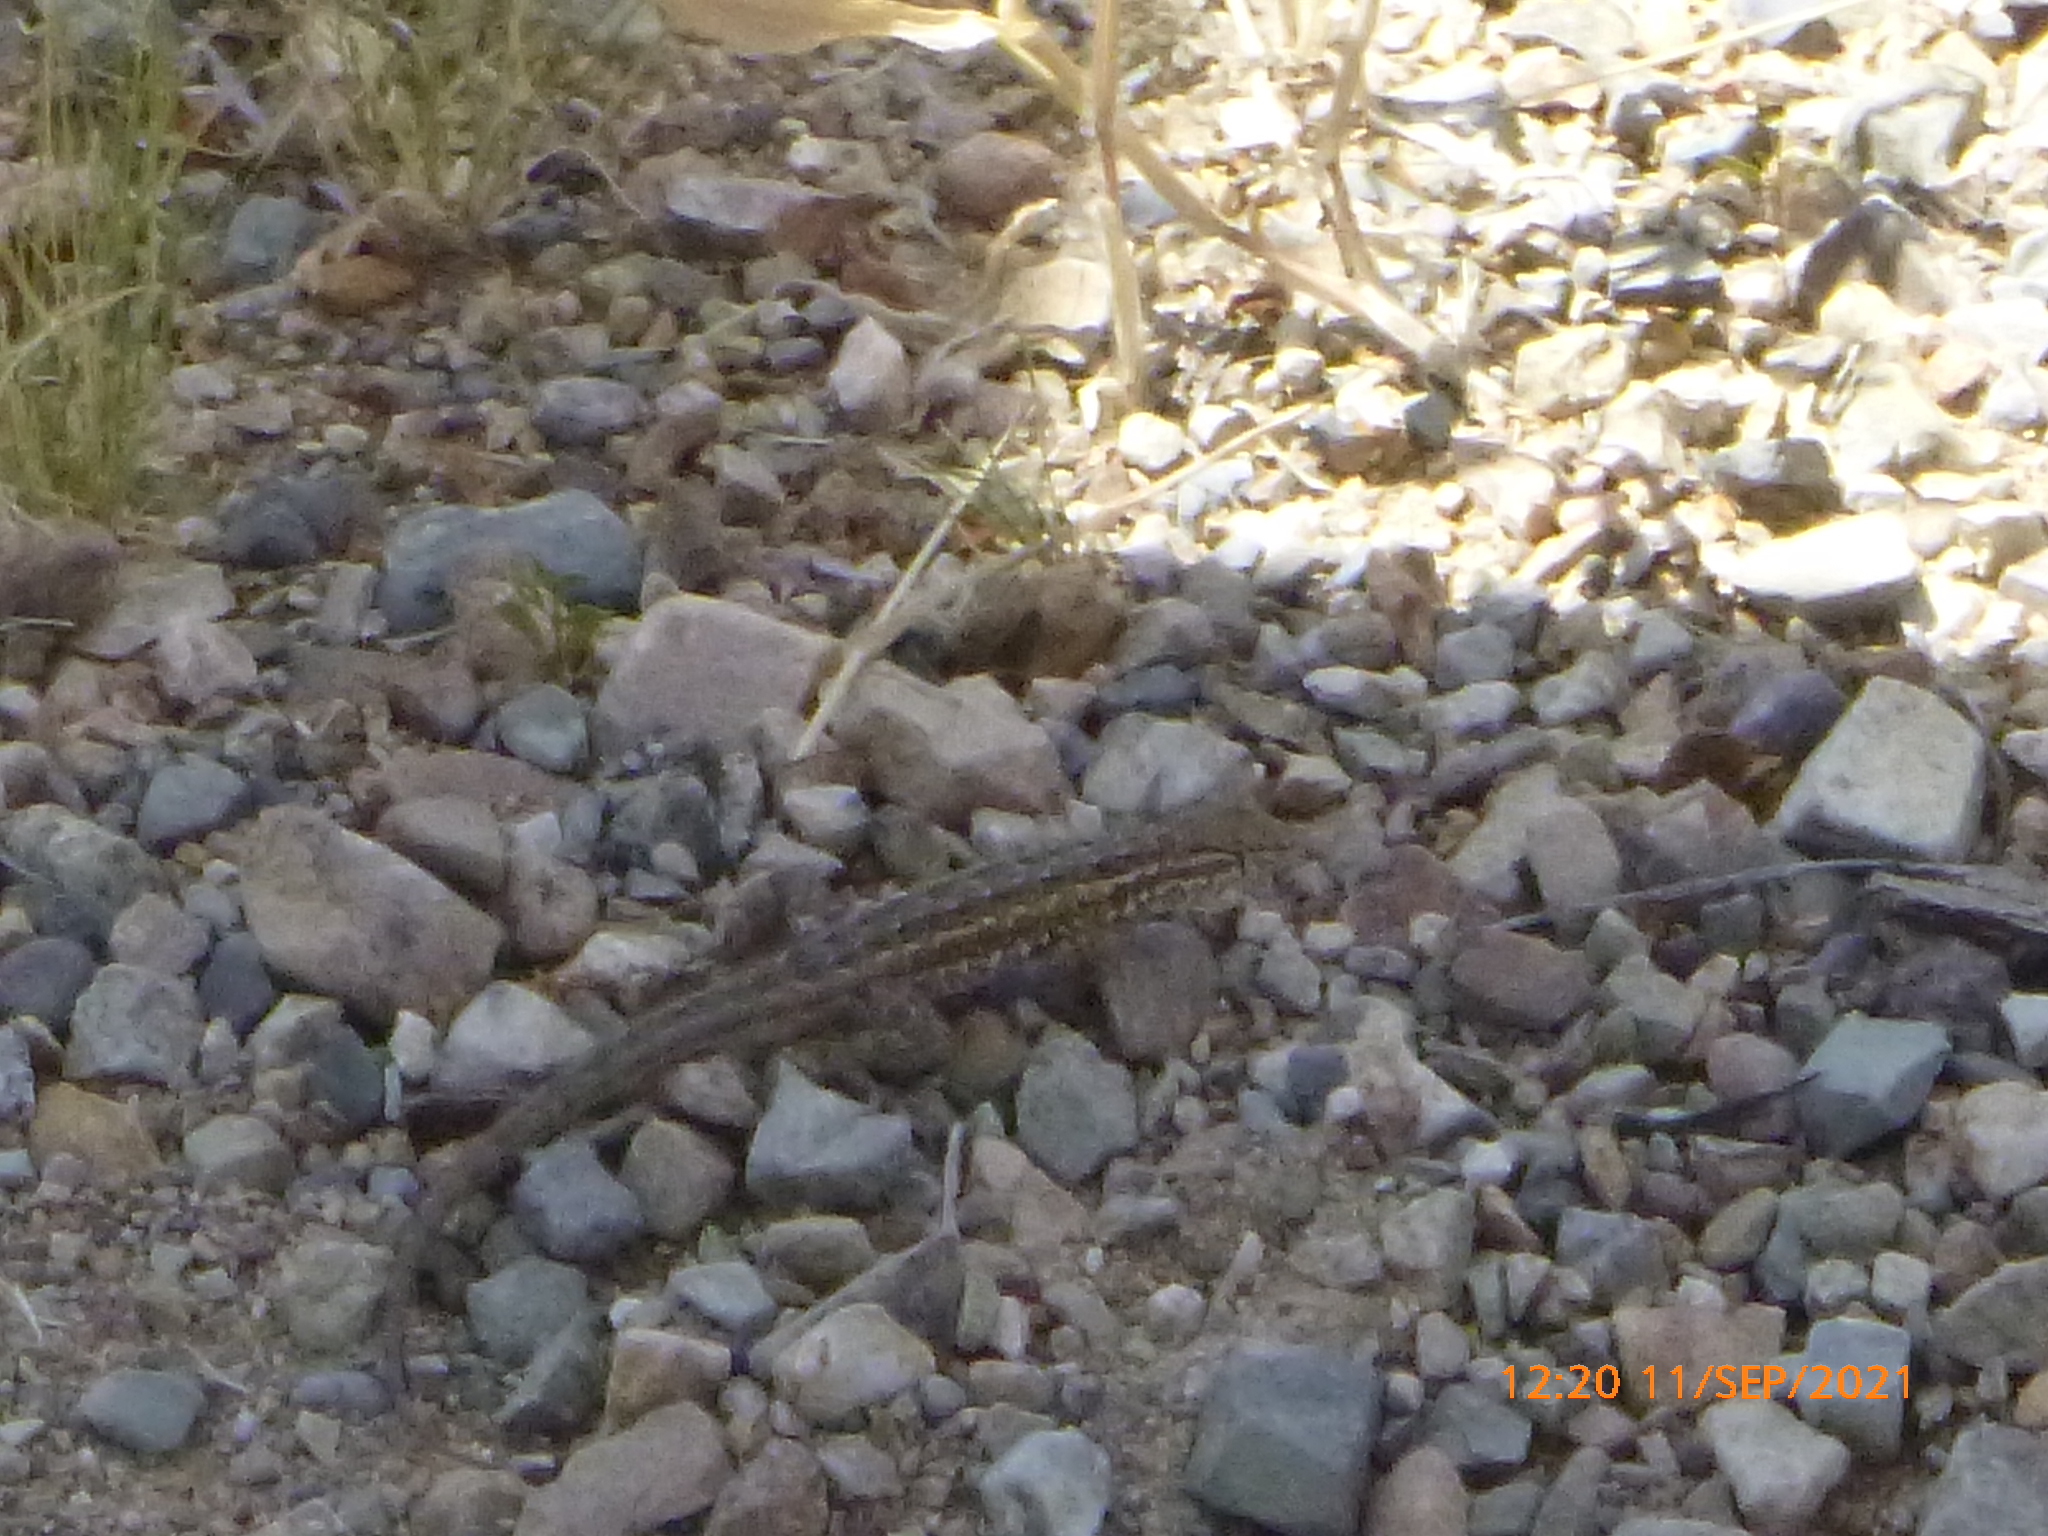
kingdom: Animalia
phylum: Chordata
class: Squamata
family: Phrynosomatidae
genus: Uta
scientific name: Uta stansburiana
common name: Side-blotched lizard
